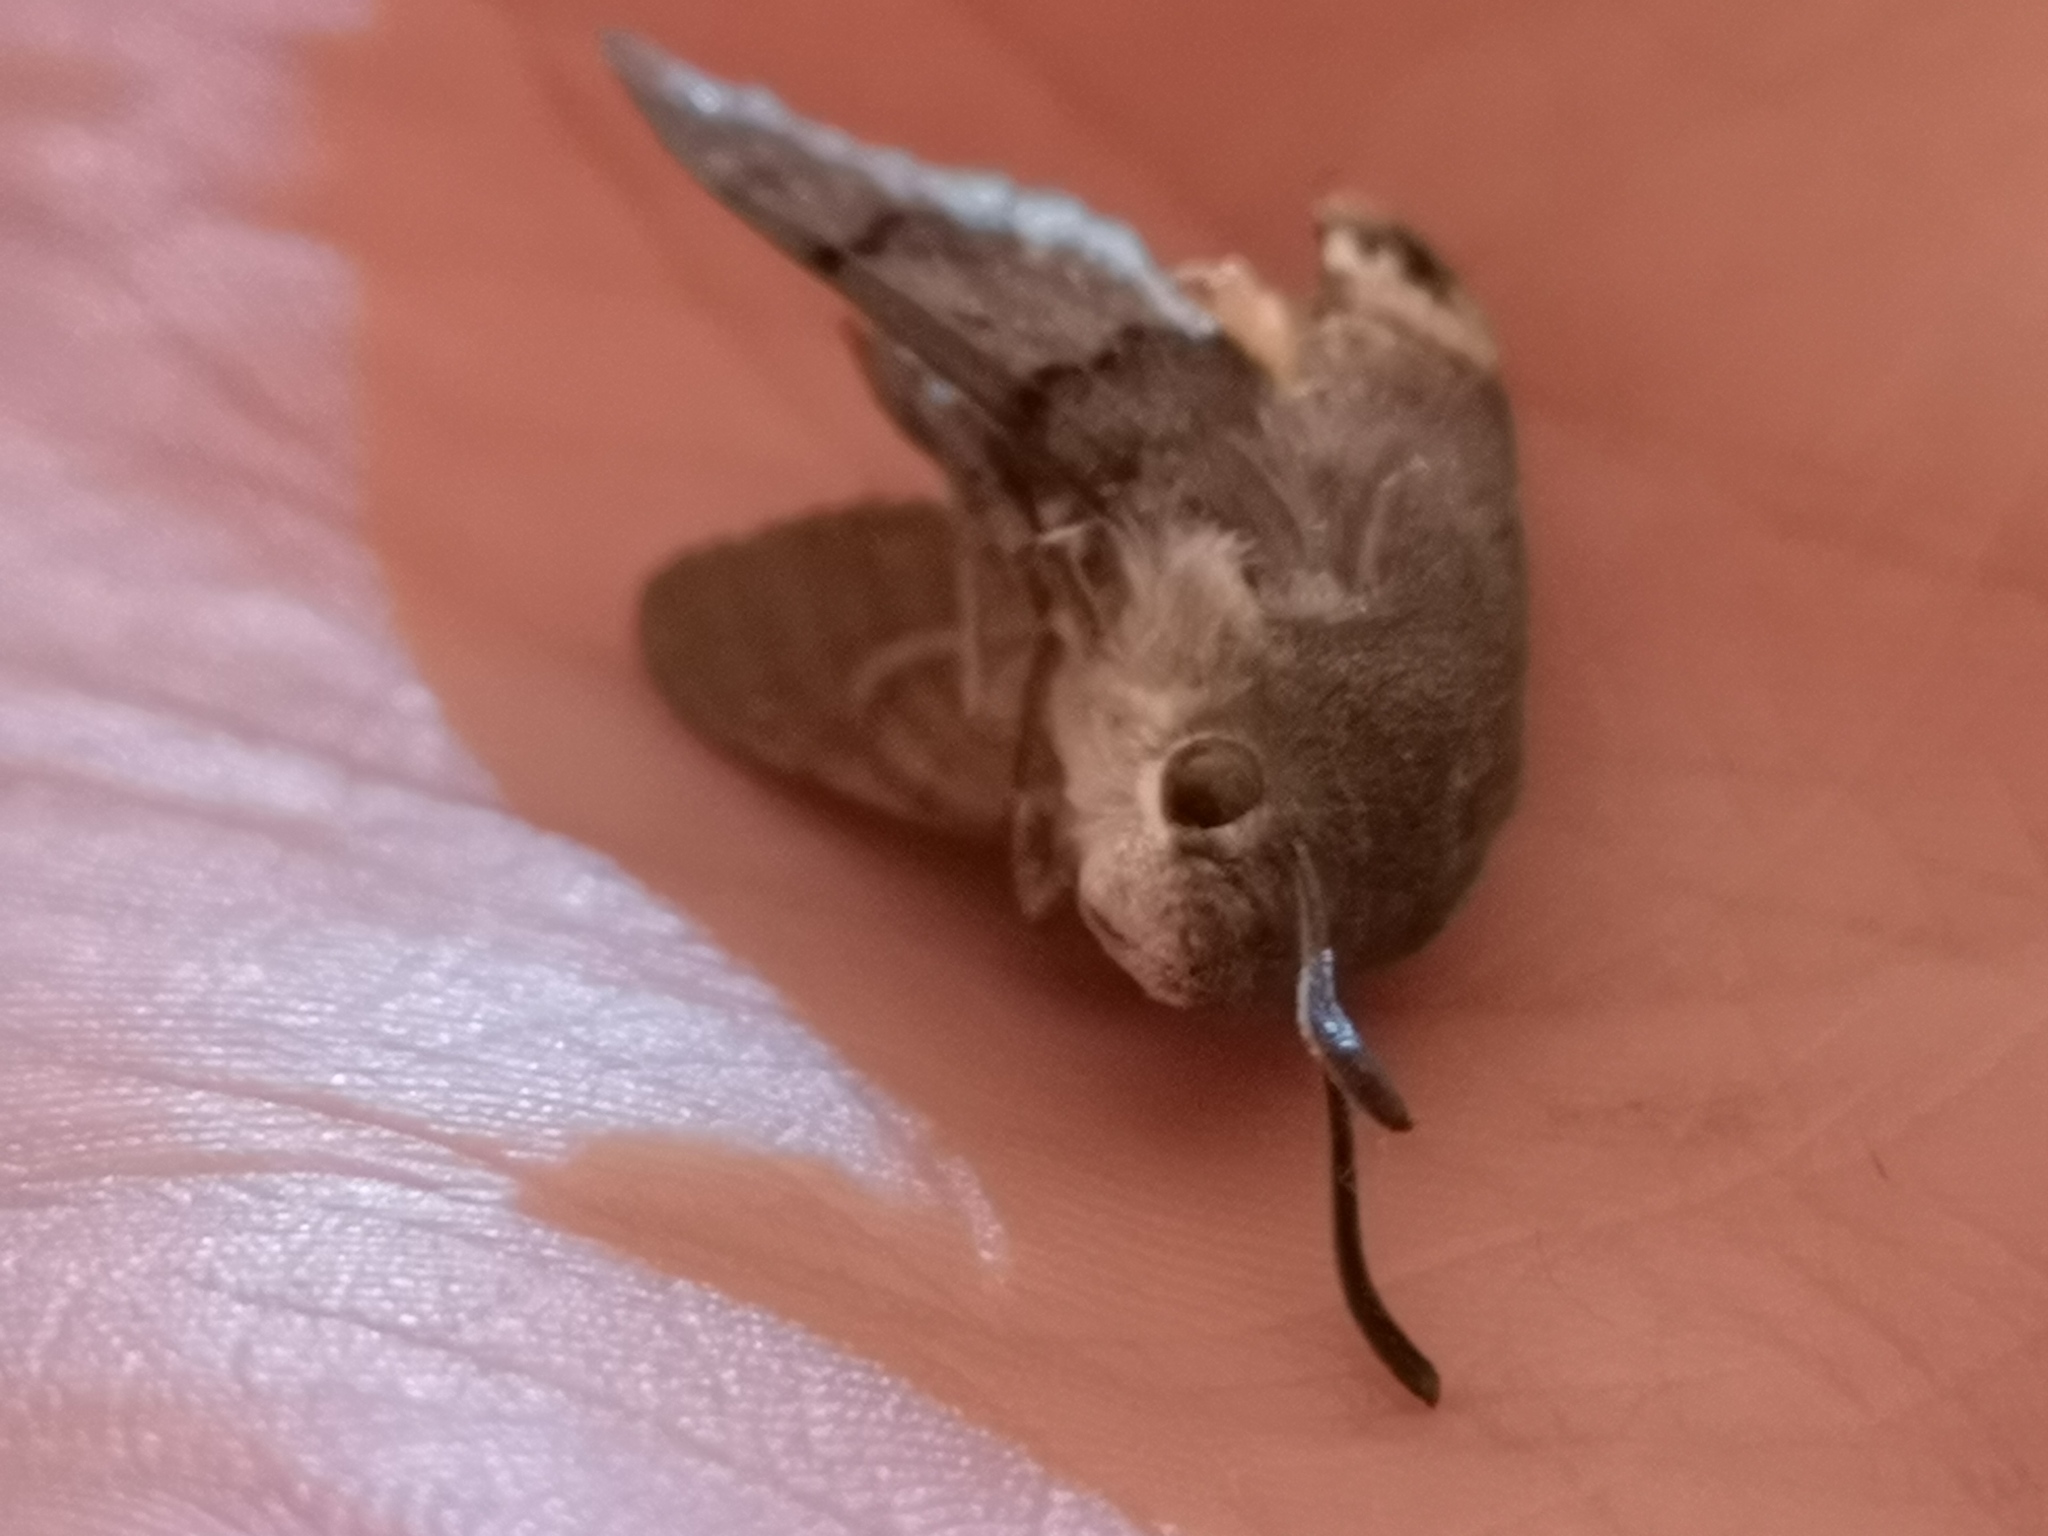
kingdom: Animalia
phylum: Arthropoda
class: Insecta
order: Lepidoptera
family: Sphingidae
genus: Macroglossum
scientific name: Macroglossum stellatarum
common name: Humming-bird hawk-moth
